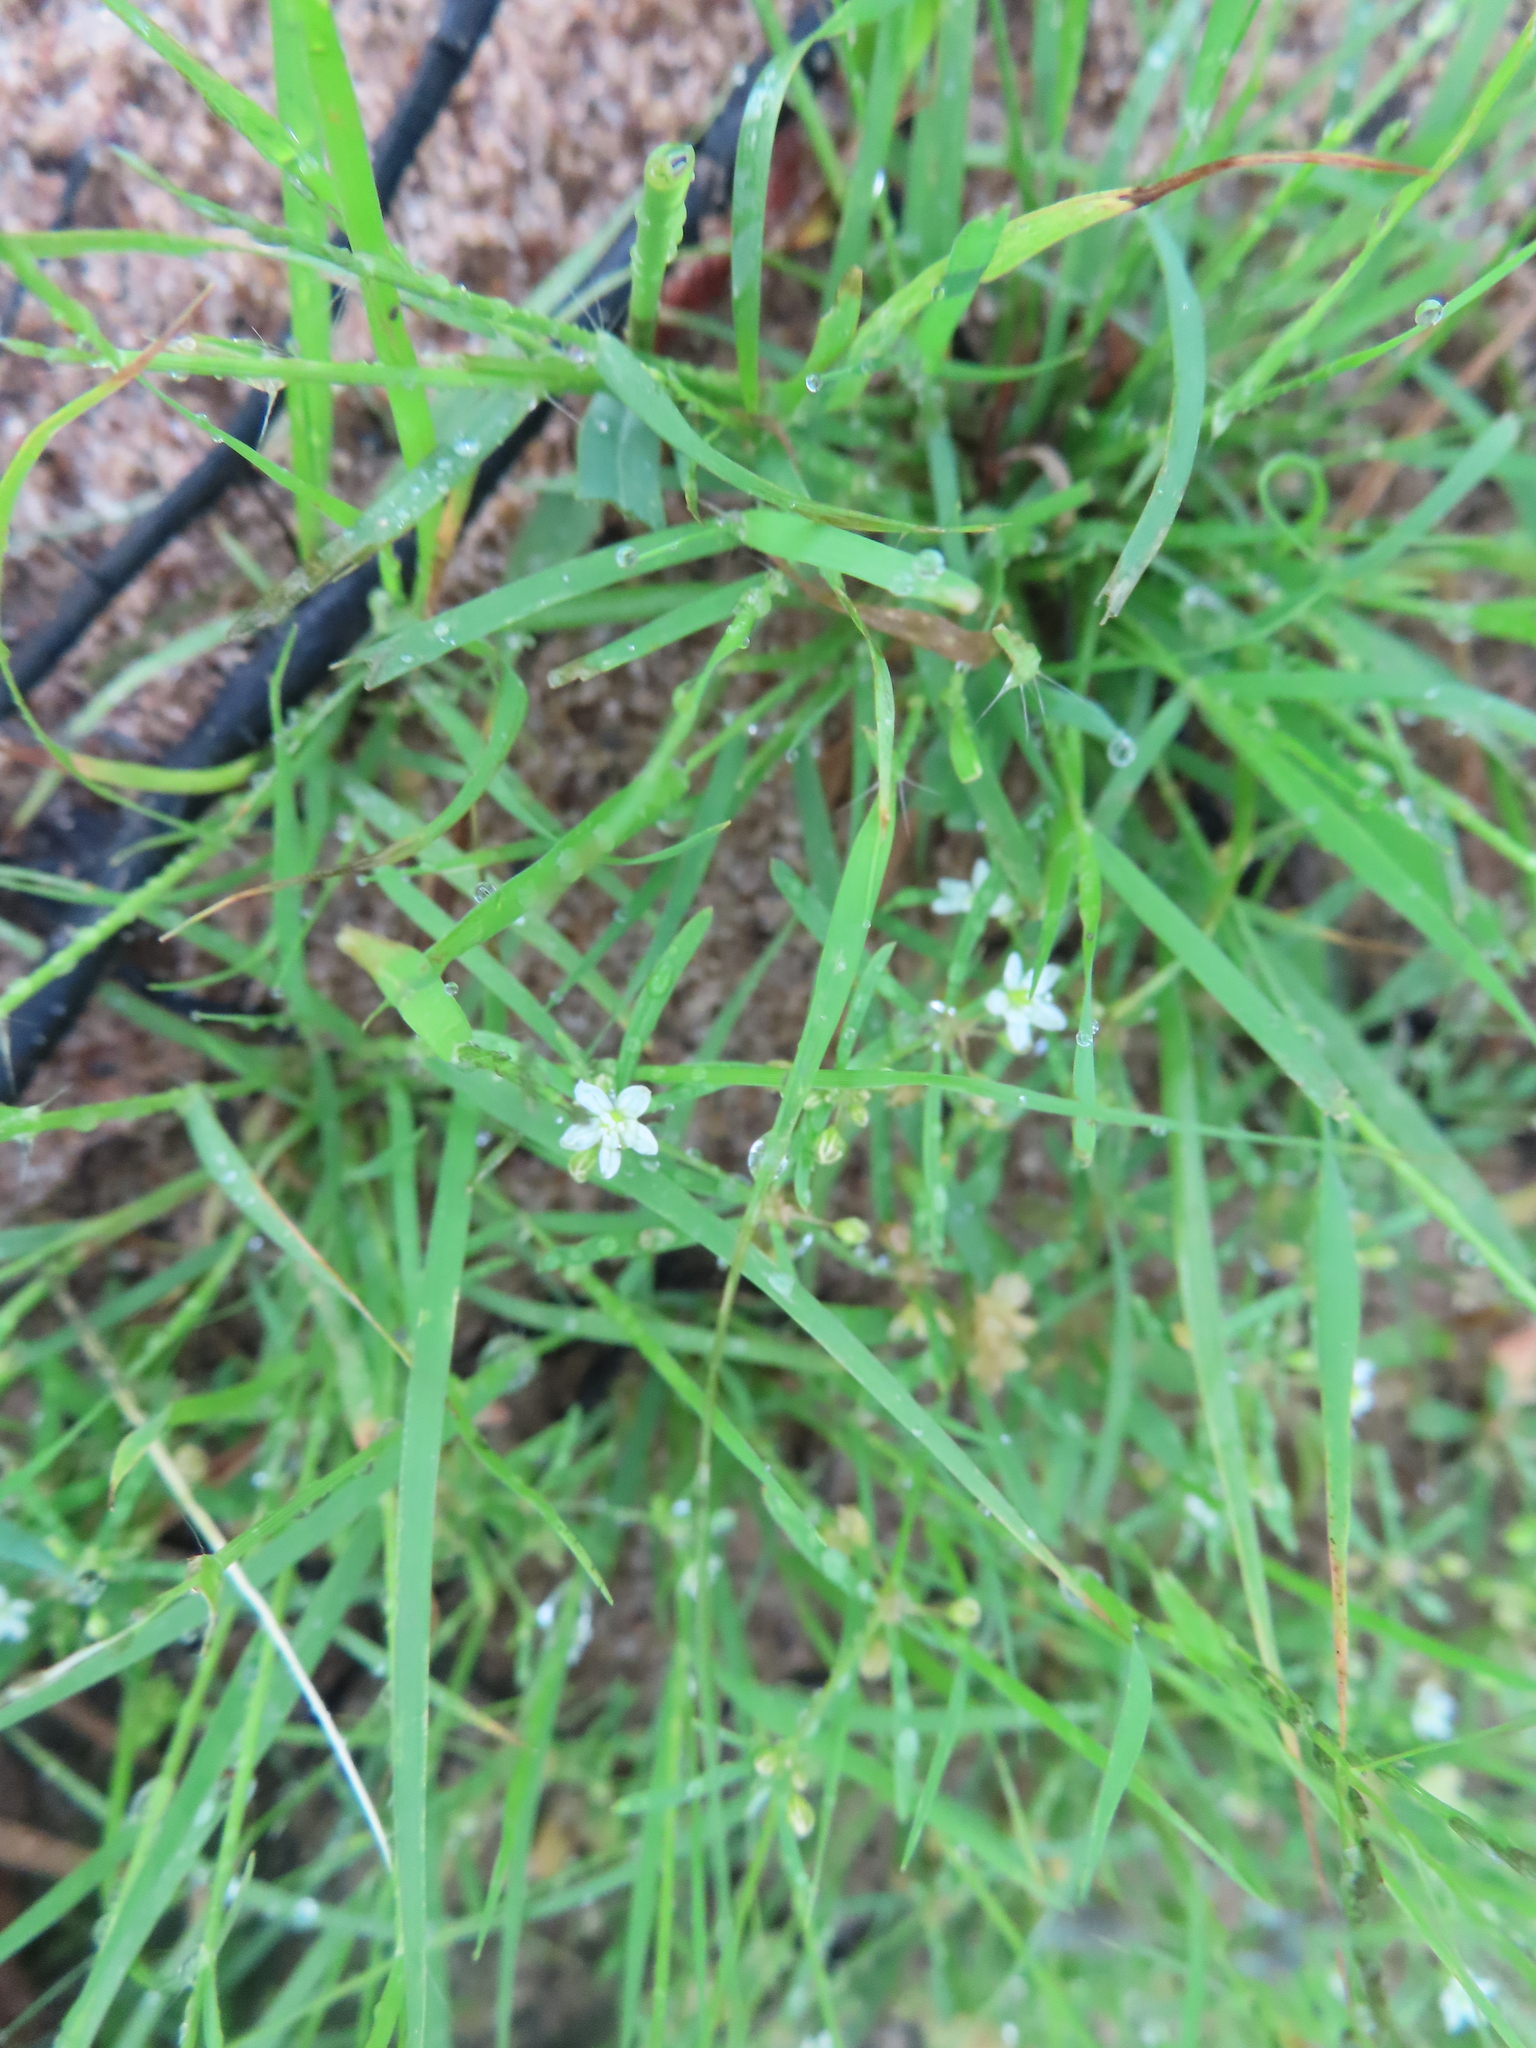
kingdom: Plantae
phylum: Tracheophyta
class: Magnoliopsida
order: Caryophyllales
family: Molluginaceae
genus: Mollugo
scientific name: Mollugo verticillata
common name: Green carpetweed
